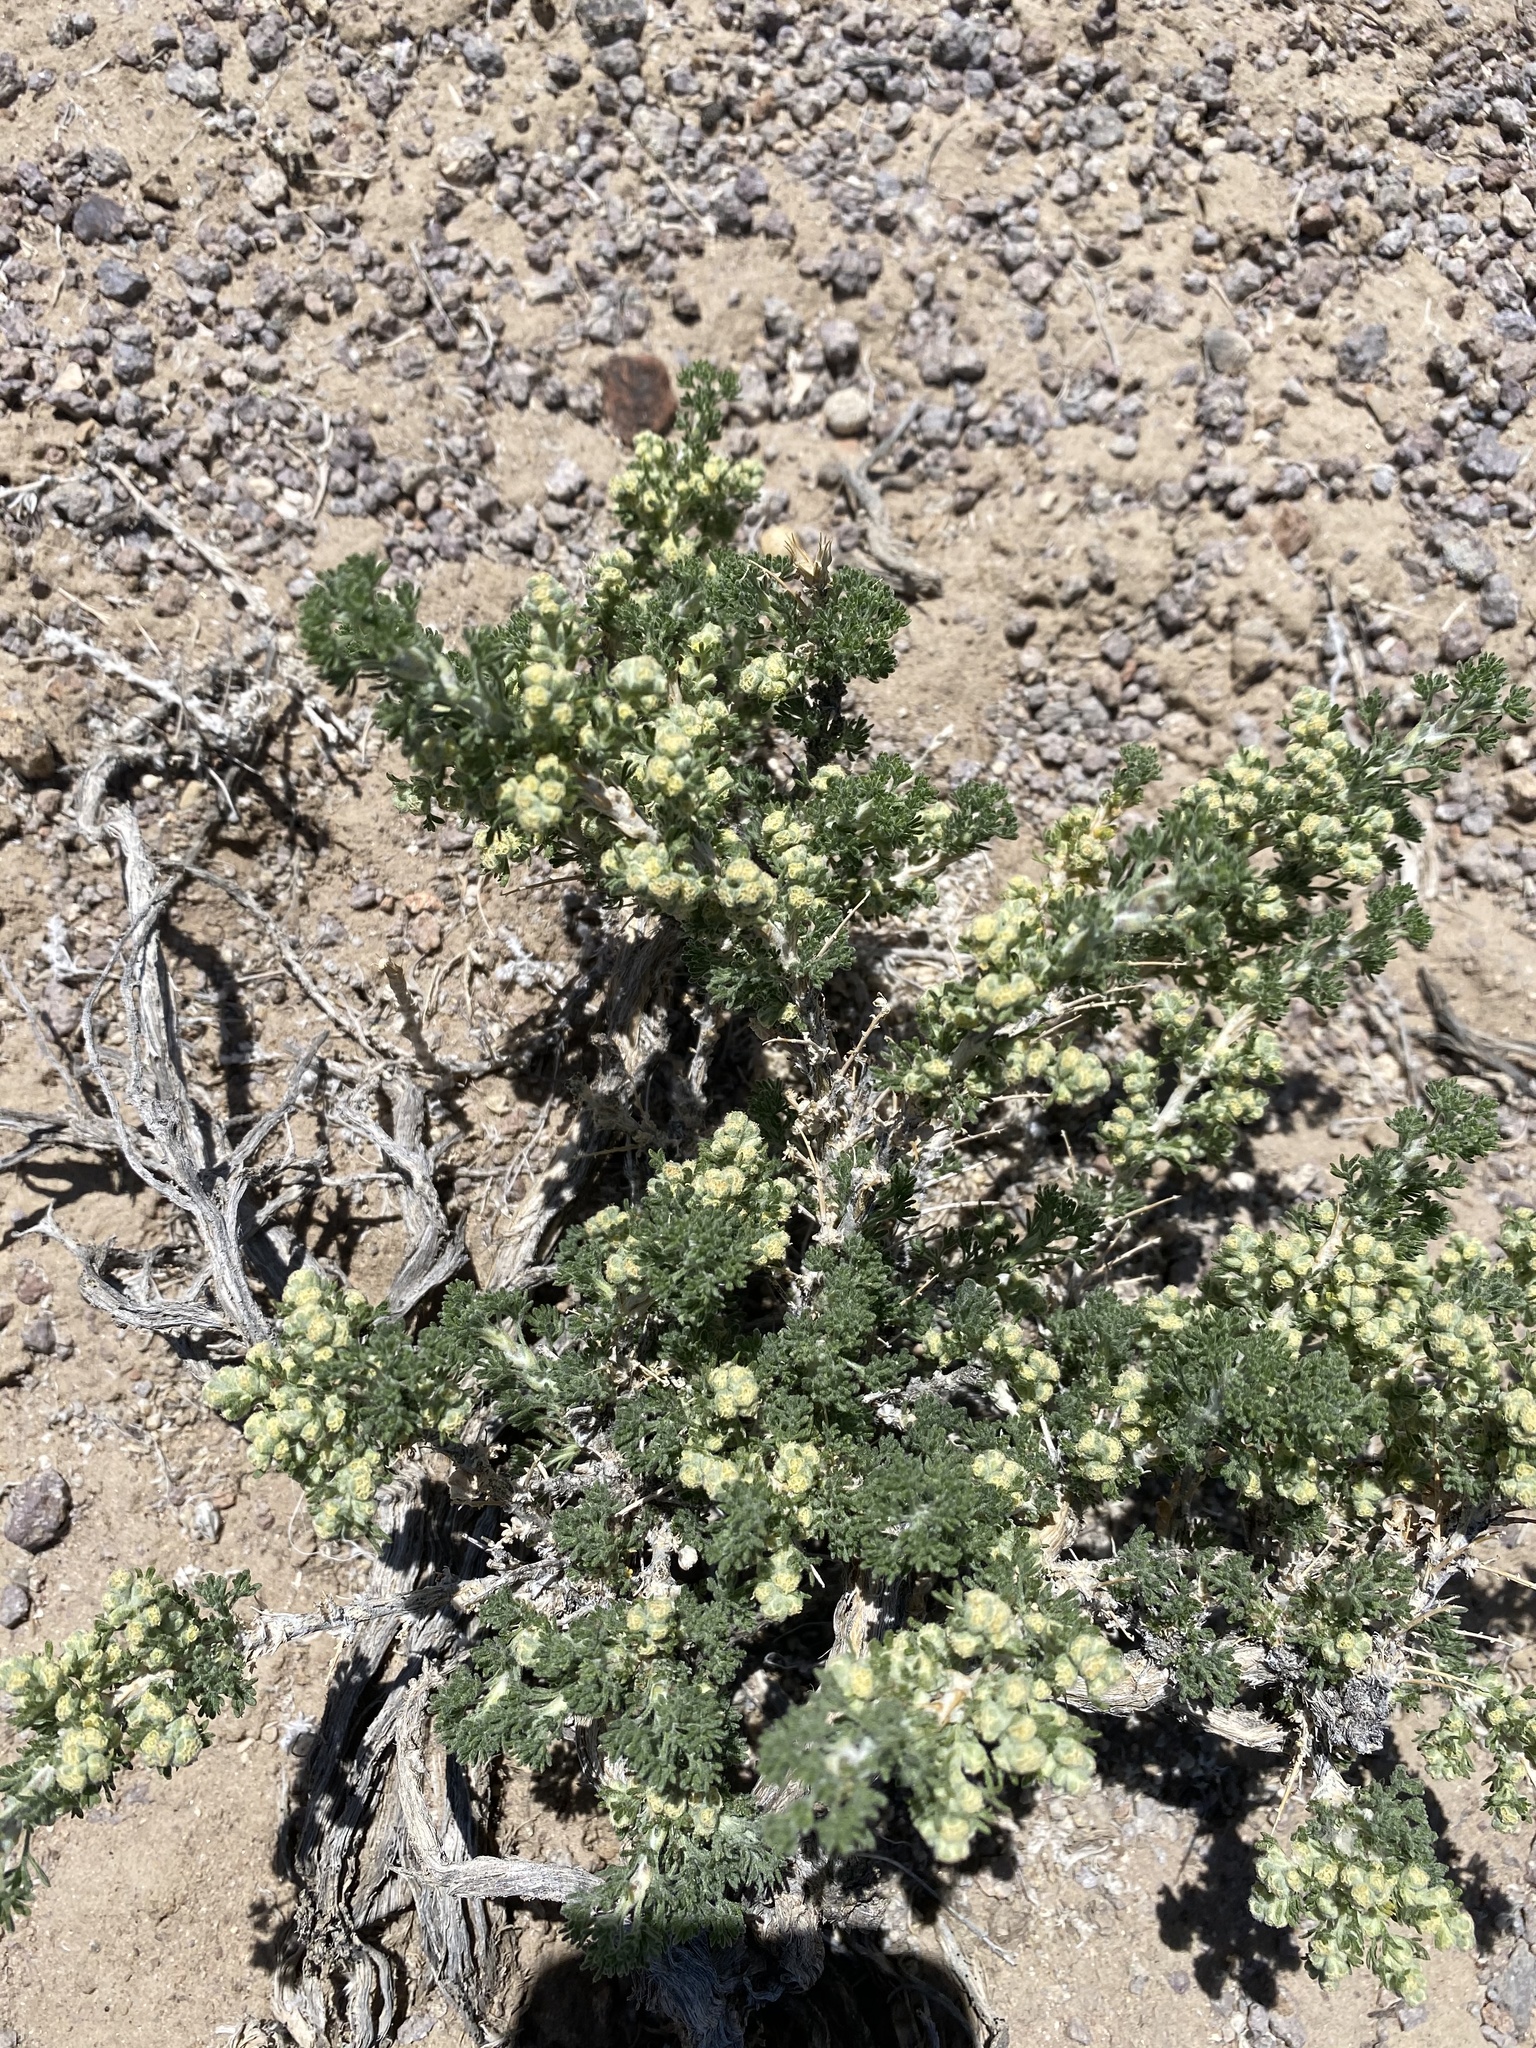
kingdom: Plantae
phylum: Tracheophyta
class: Magnoliopsida
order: Asterales
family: Asteraceae
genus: Artemisia
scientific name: Artemisia spinescens
